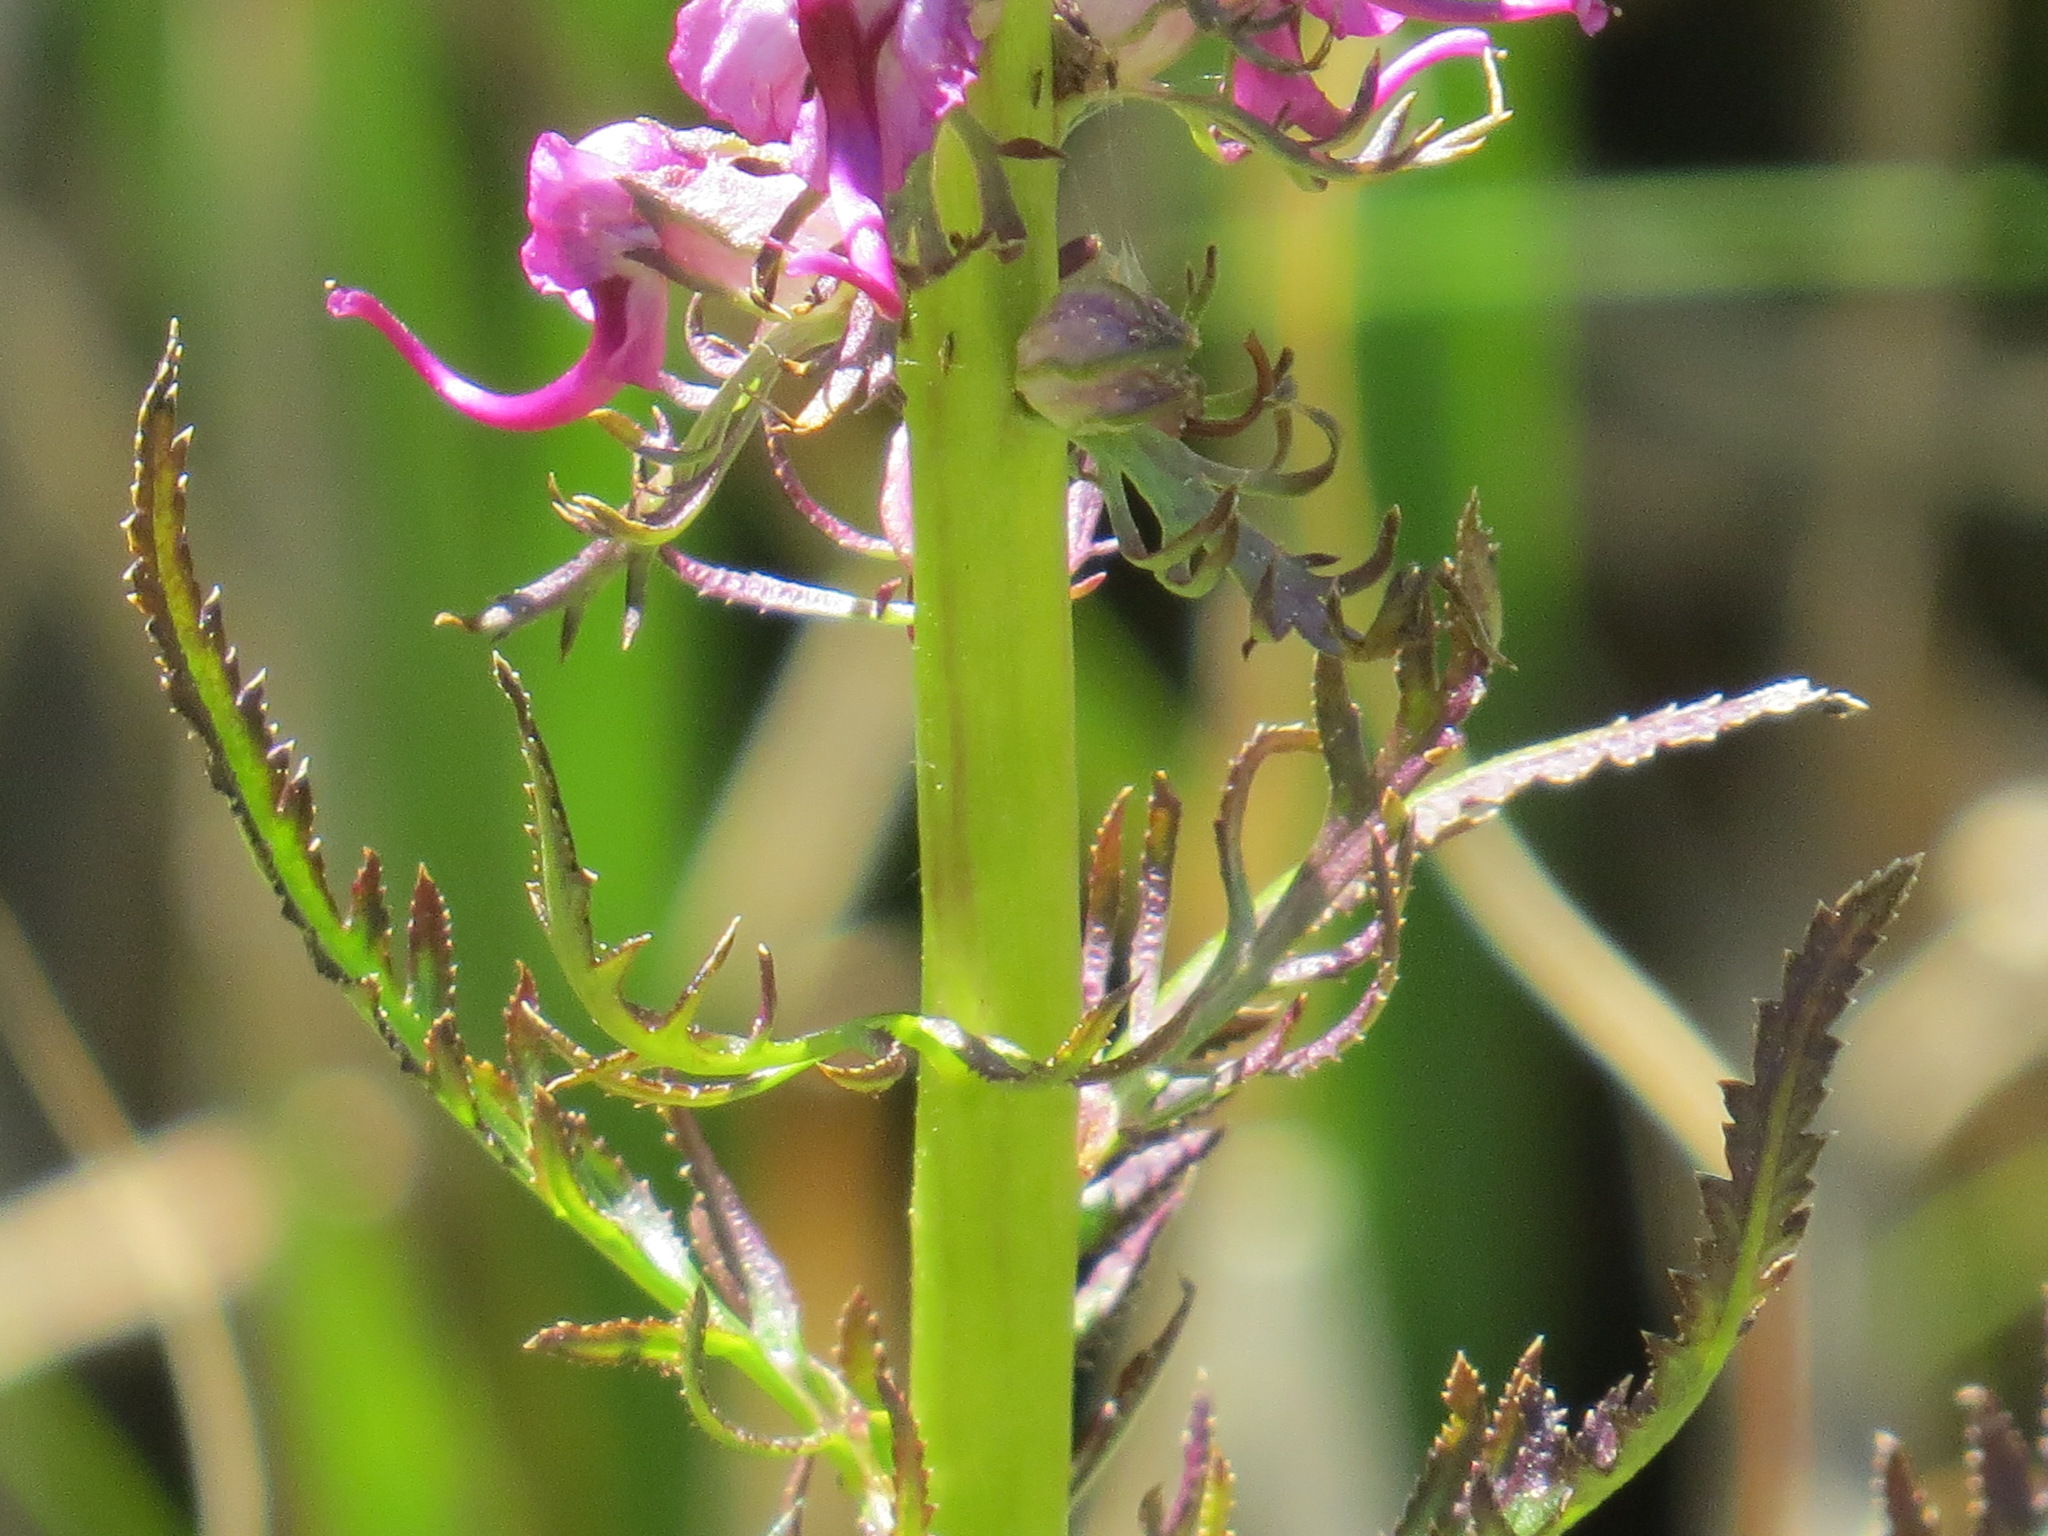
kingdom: Plantae
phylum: Tracheophyta
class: Magnoliopsida
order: Lamiales
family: Orobanchaceae
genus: Pedicularis
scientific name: Pedicularis groenlandica
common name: Elephant's-head
